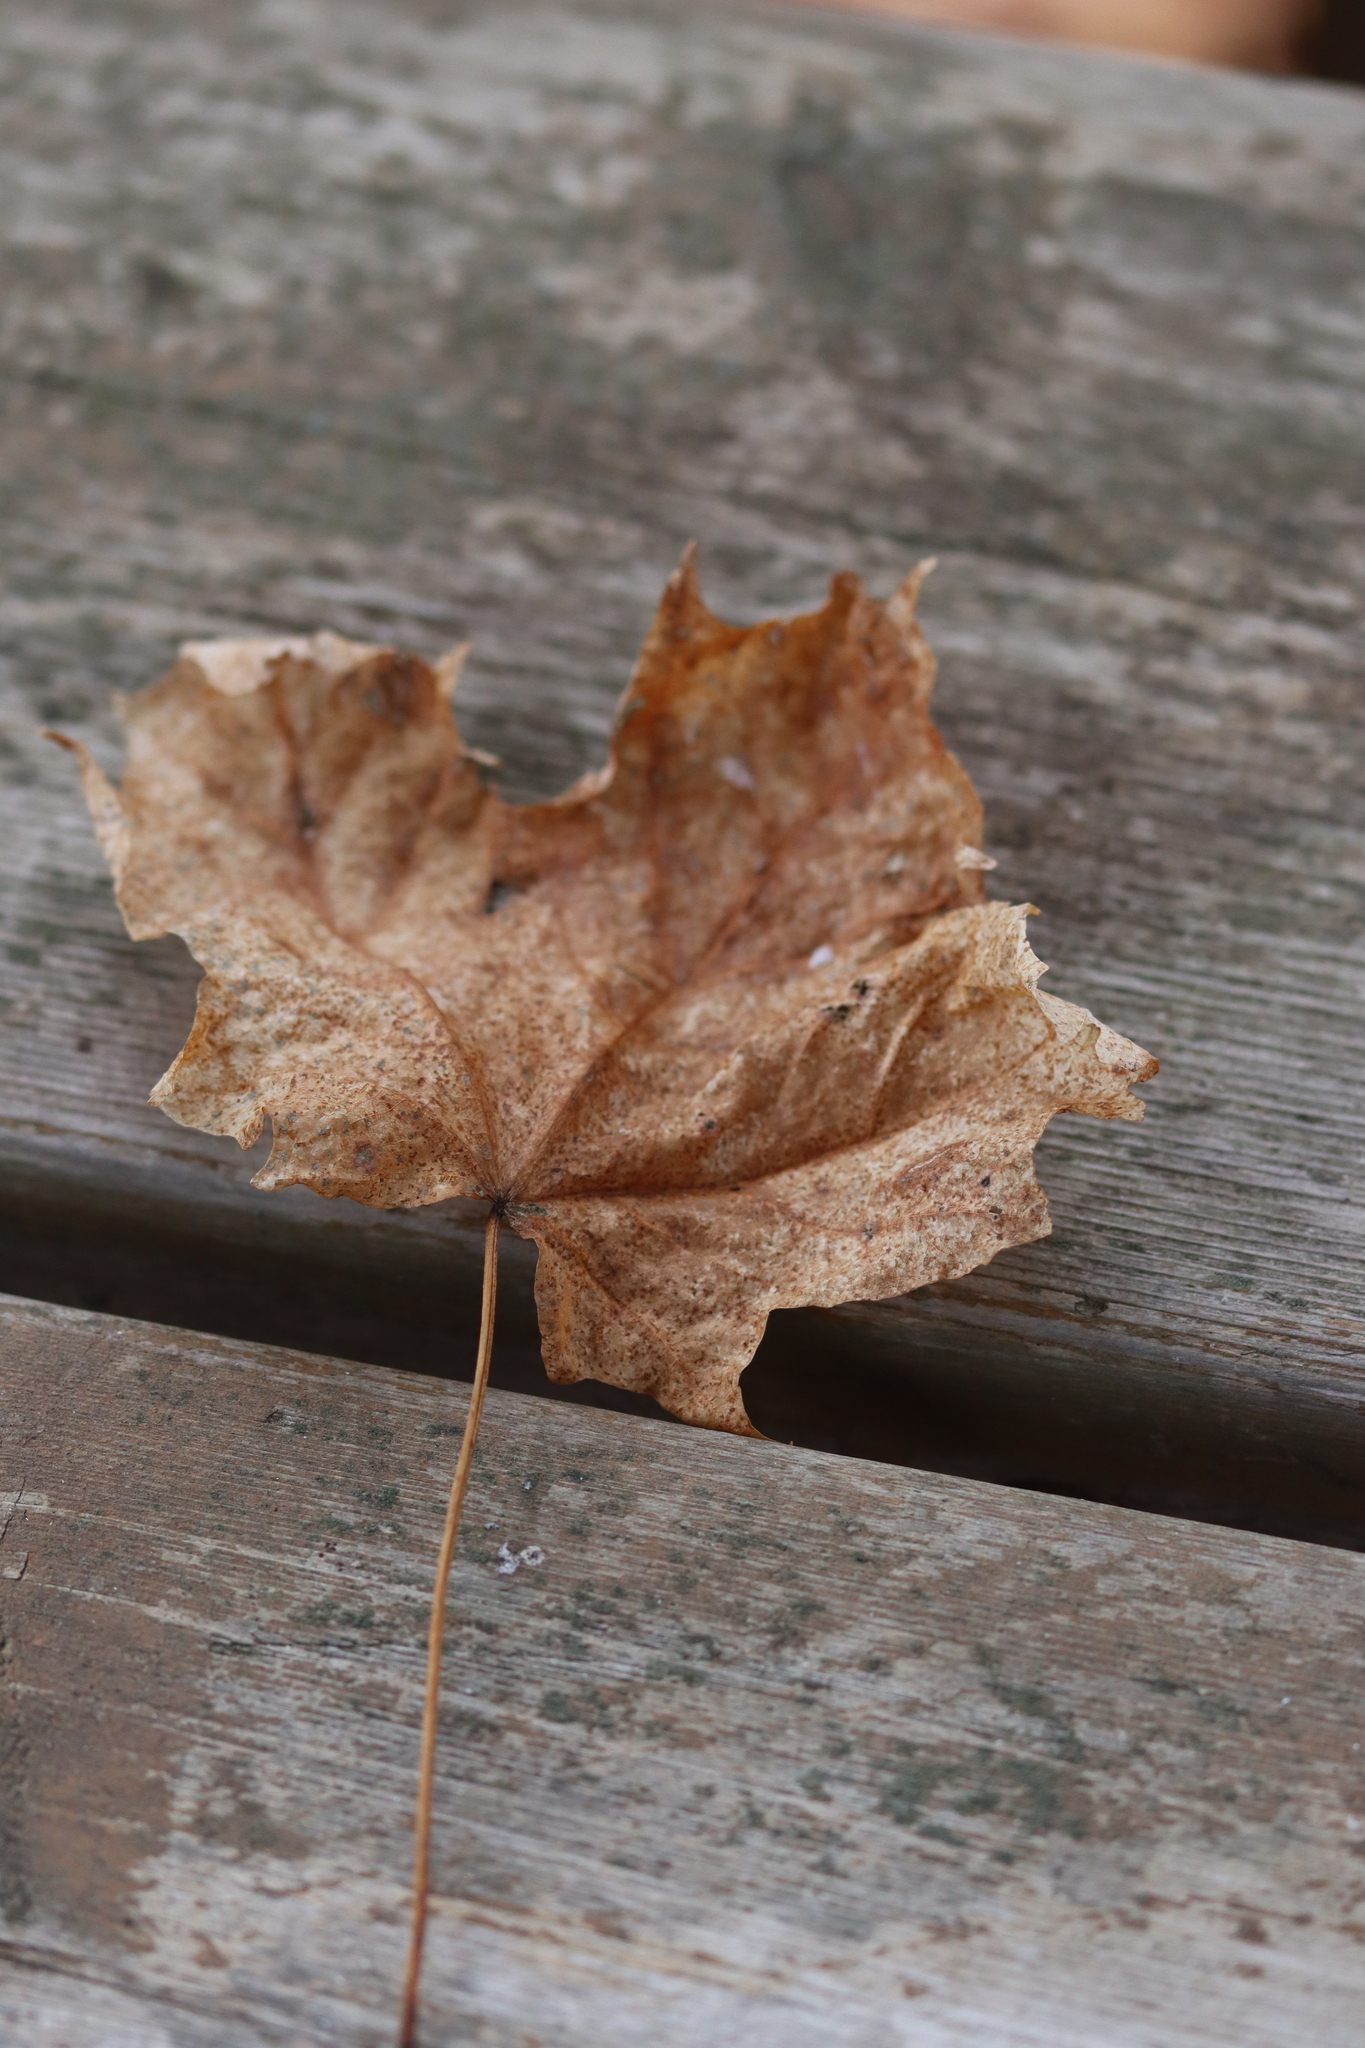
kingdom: Plantae
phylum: Tracheophyta
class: Magnoliopsida
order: Sapindales
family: Sapindaceae
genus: Acer
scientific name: Acer saccharum
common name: Sugar maple
